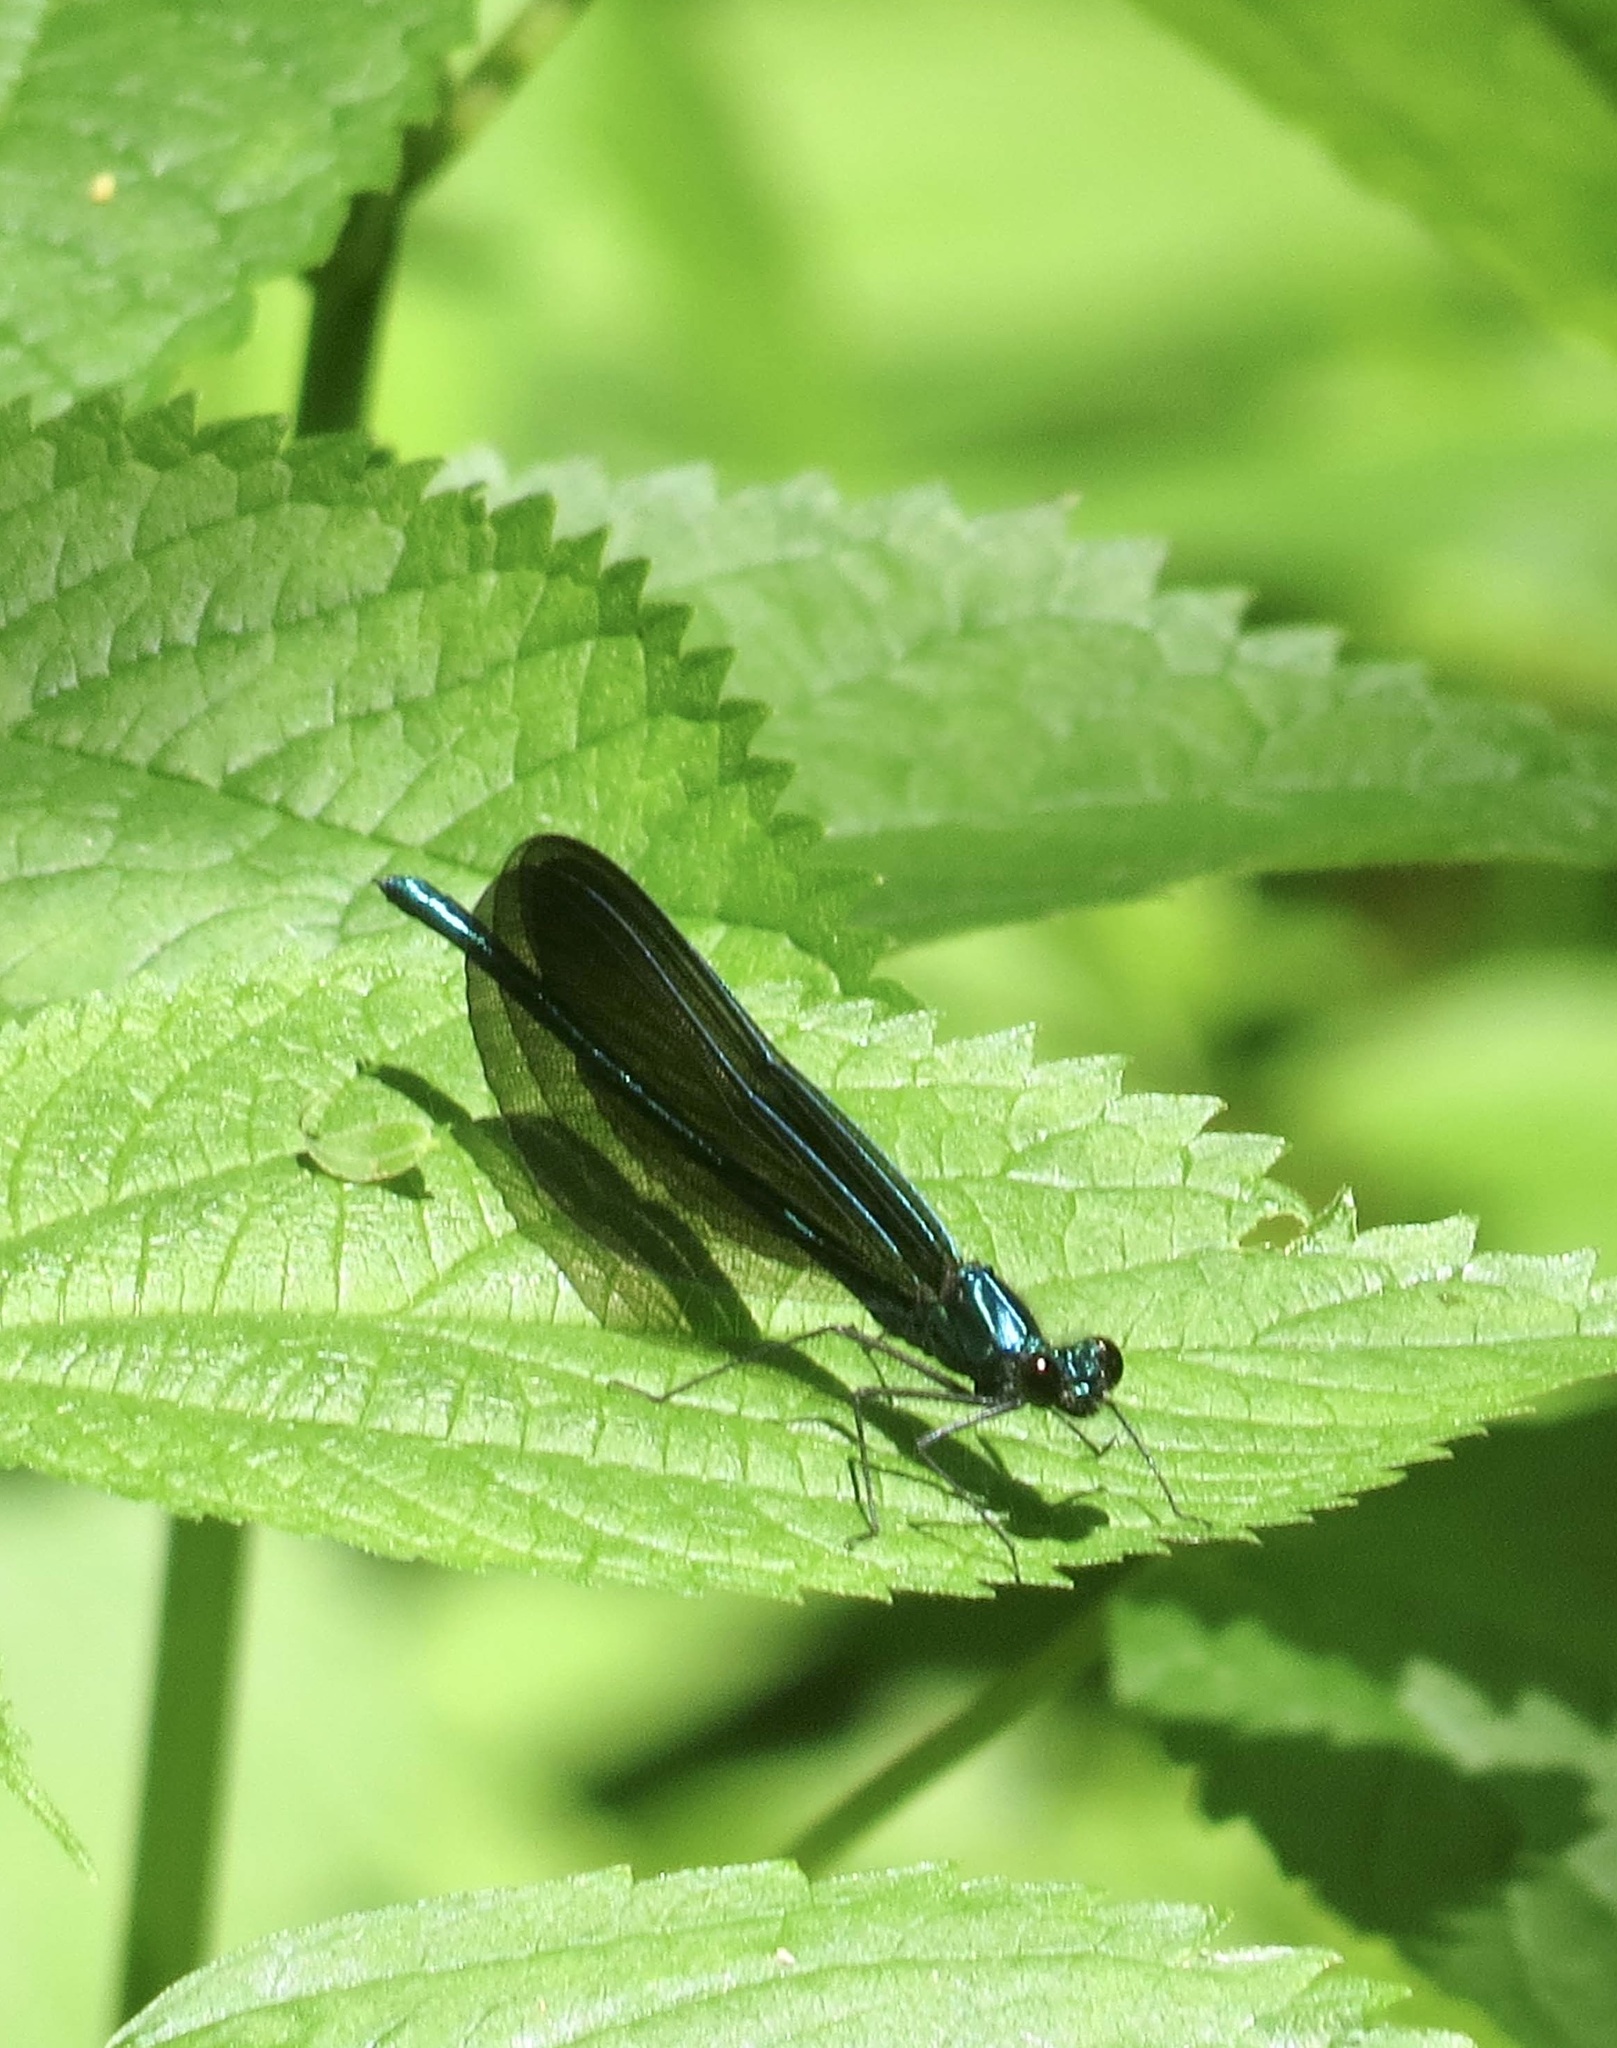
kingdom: Animalia
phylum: Arthropoda
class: Insecta
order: Odonata
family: Calopterygidae
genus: Calopteryx
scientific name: Calopteryx maculata
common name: Ebony jewelwing
